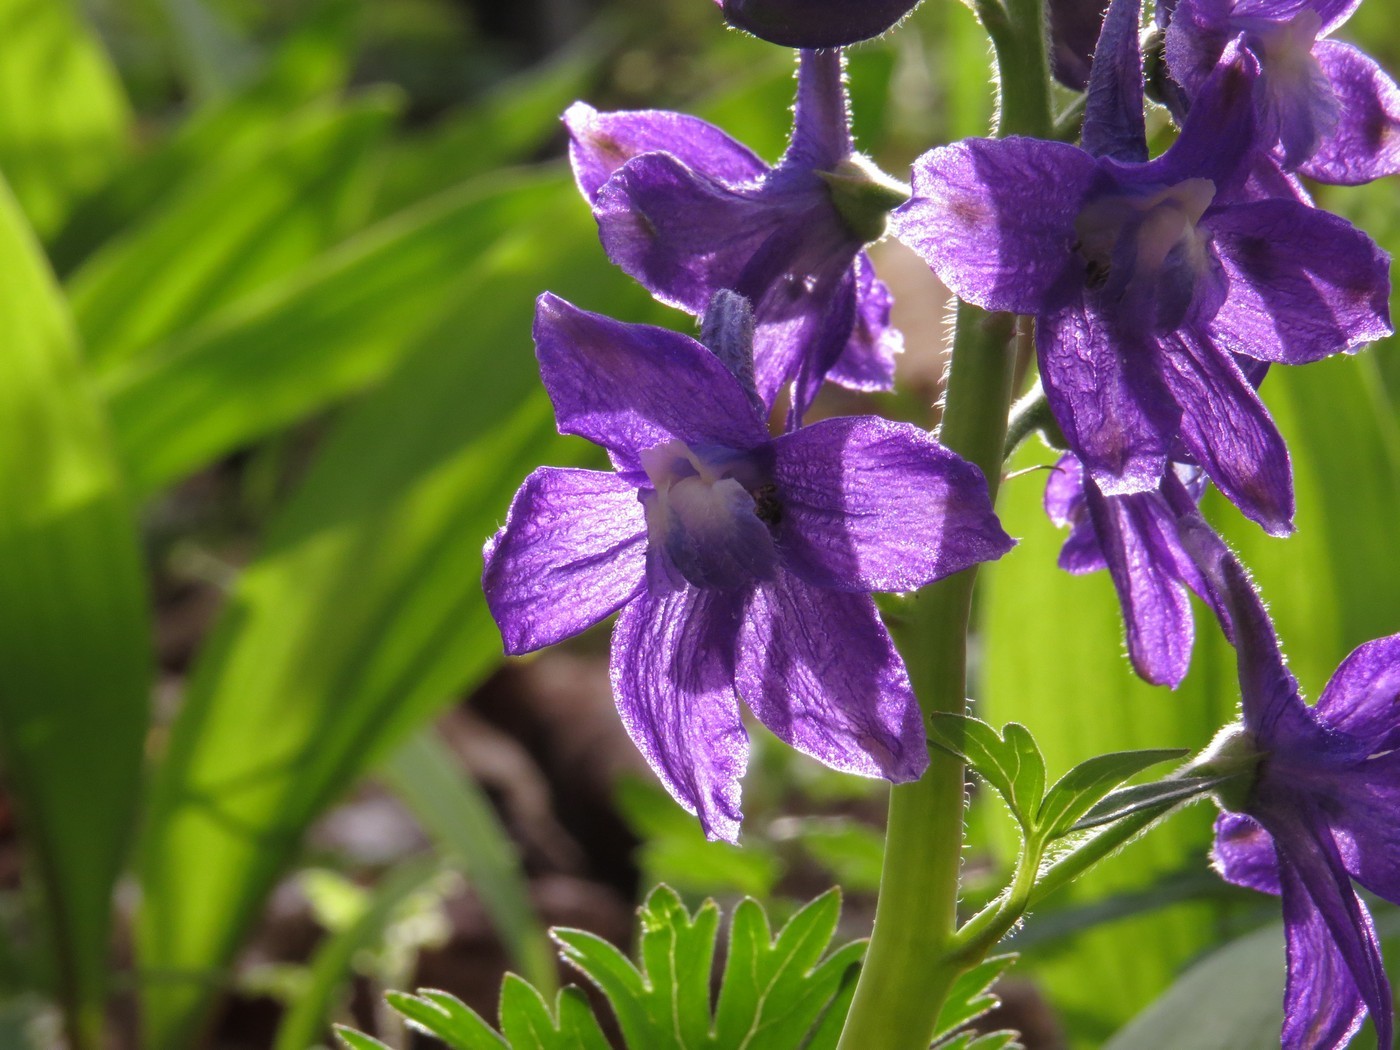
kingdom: Plantae
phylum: Tracheophyta
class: Magnoliopsida
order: Ranunculales
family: Ranunculaceae
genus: Delphinium
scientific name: Delphinium tricorne
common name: Dwarf larkspur
